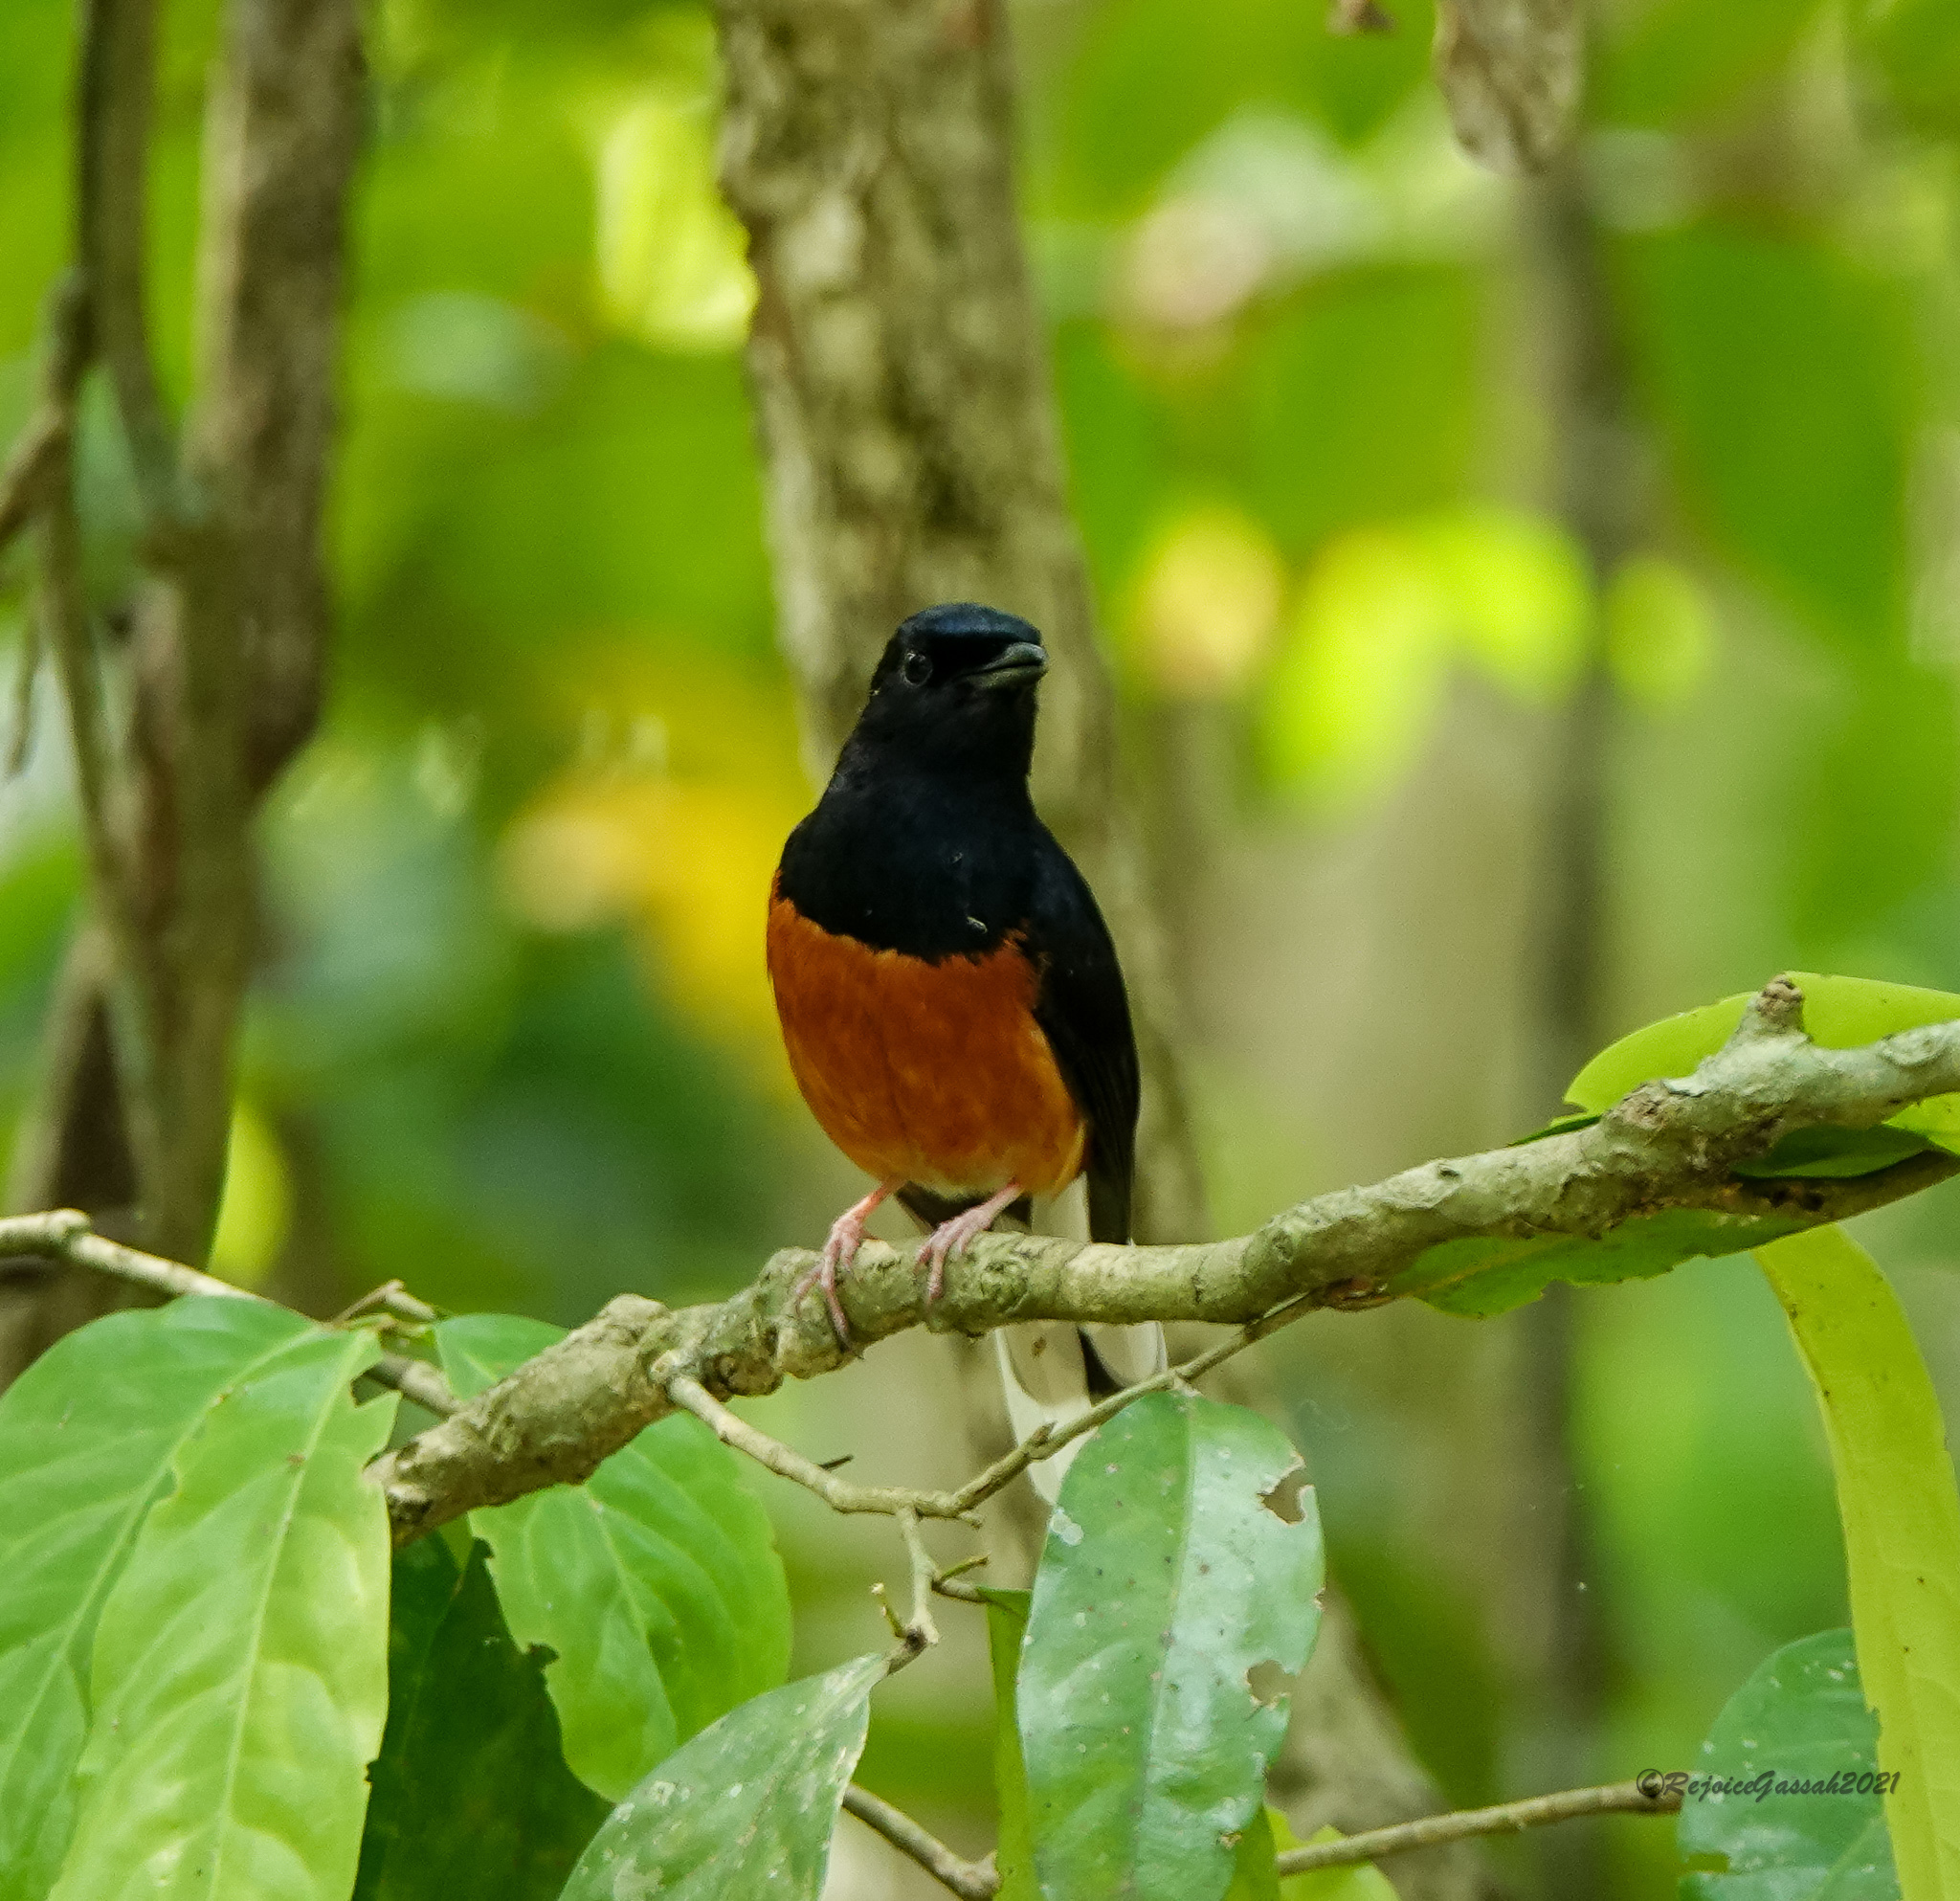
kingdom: Animalia
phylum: Chordata
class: Aves
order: Passeriformes
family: Muscicapidae
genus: Copsychus
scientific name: Copsychus malabaricus
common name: White-rumped shama
